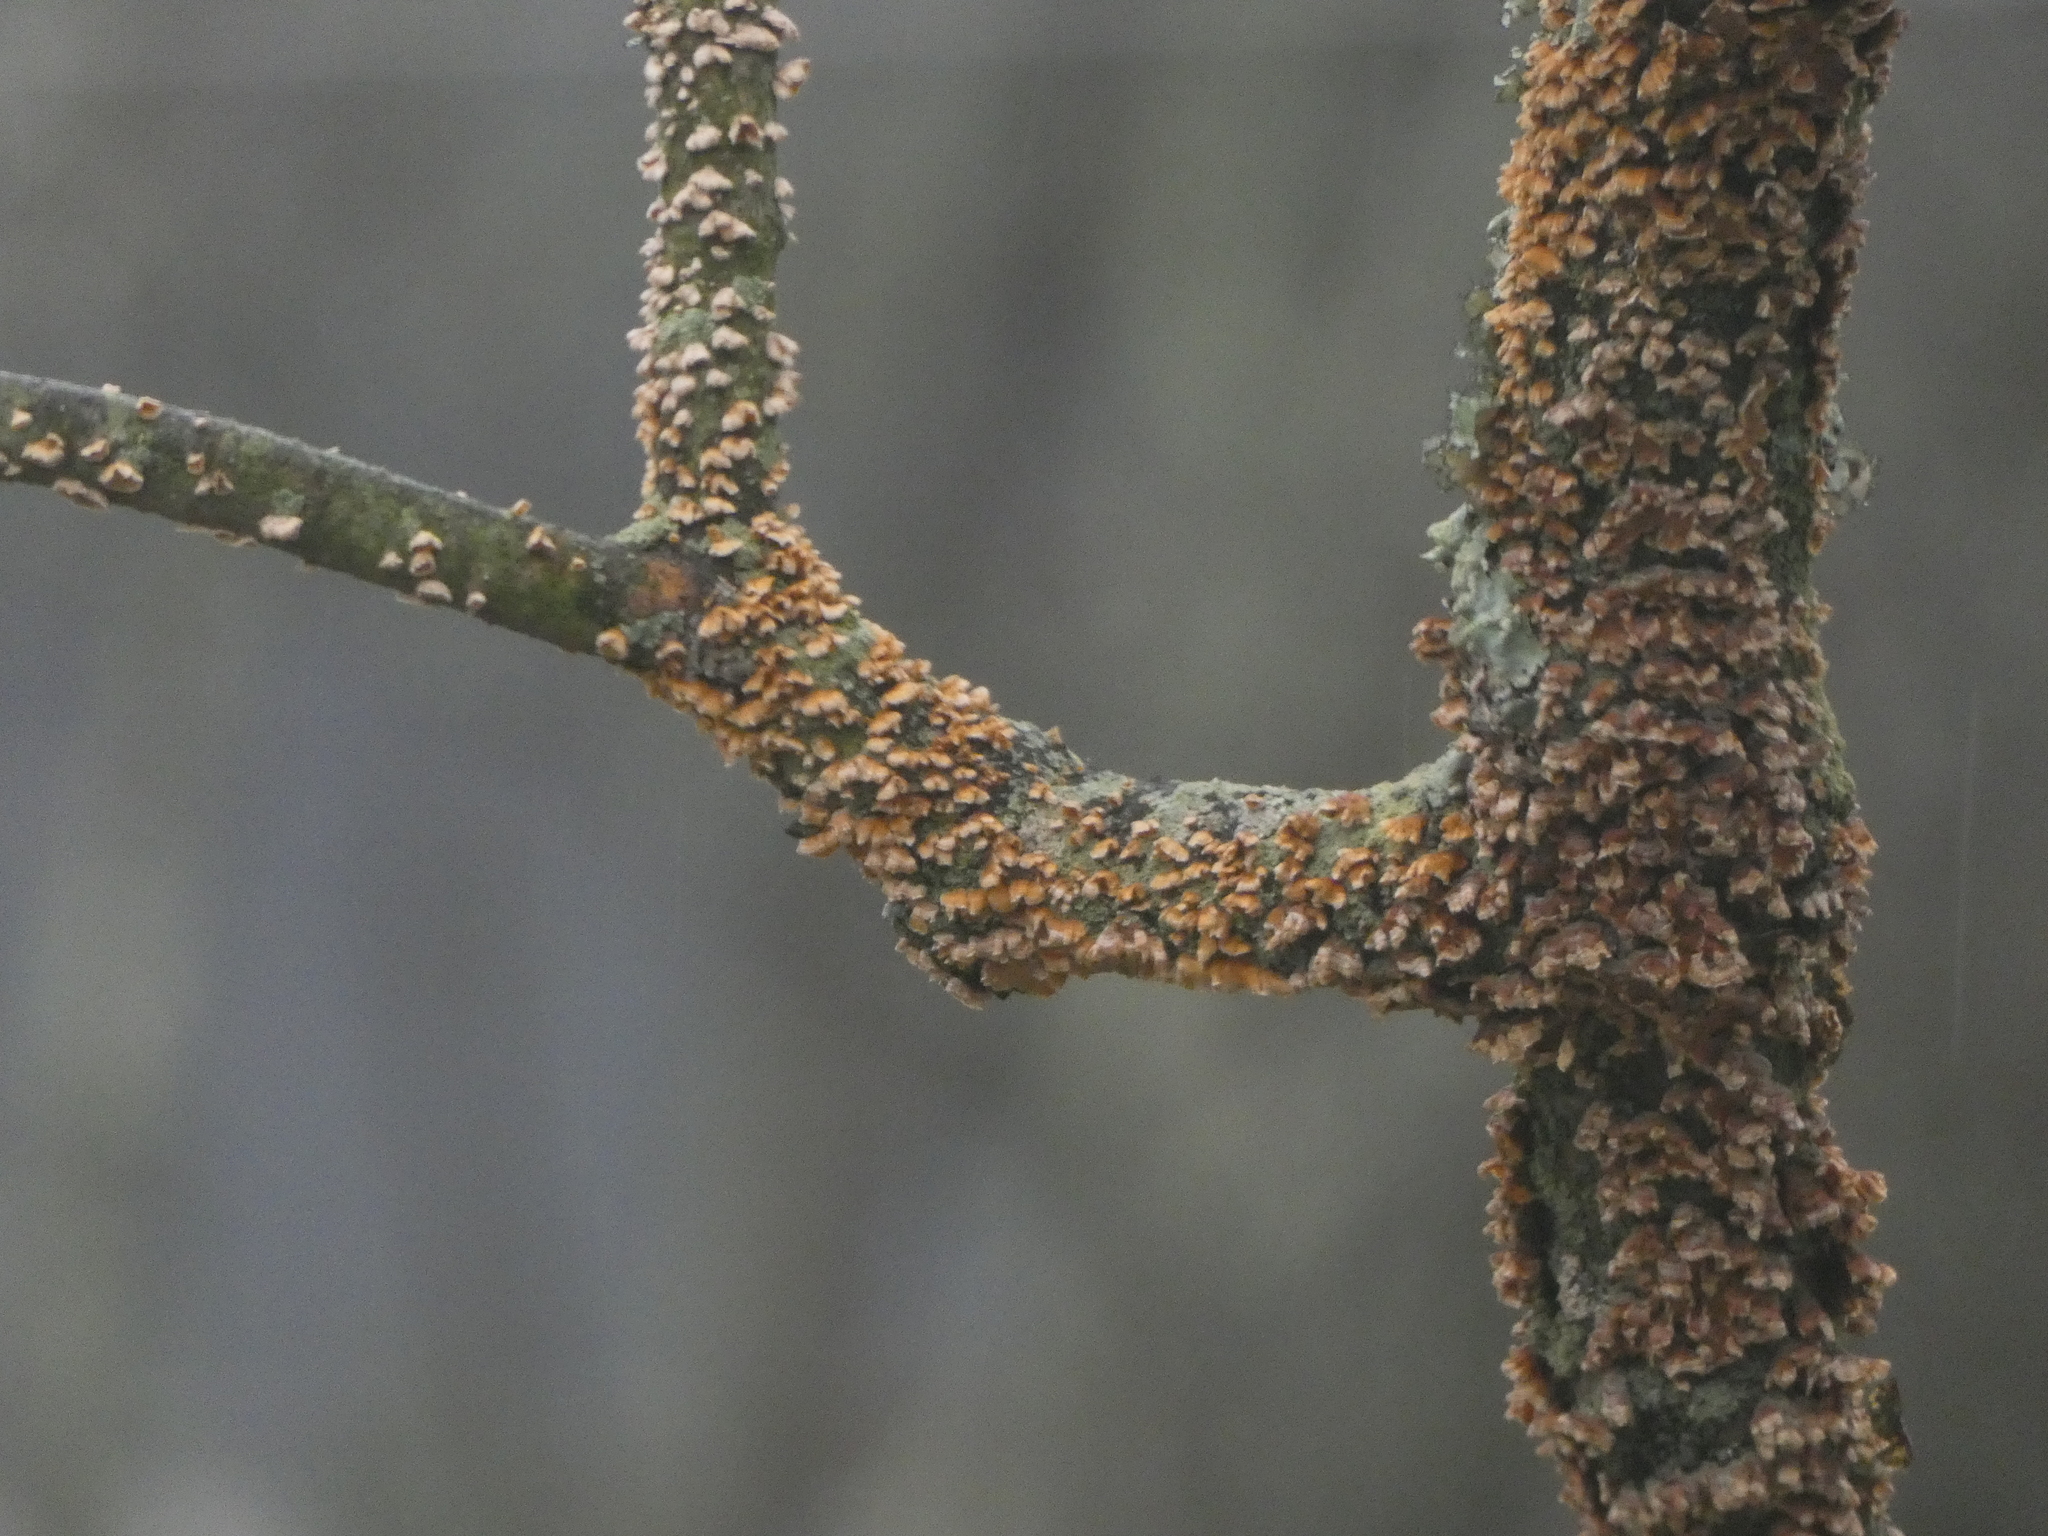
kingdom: Fungi
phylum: Basidiomycota
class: Agaricomycetes
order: Russulales
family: Stereaceae
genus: Stereum
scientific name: Stereum complicatum
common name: Crowded parchment
